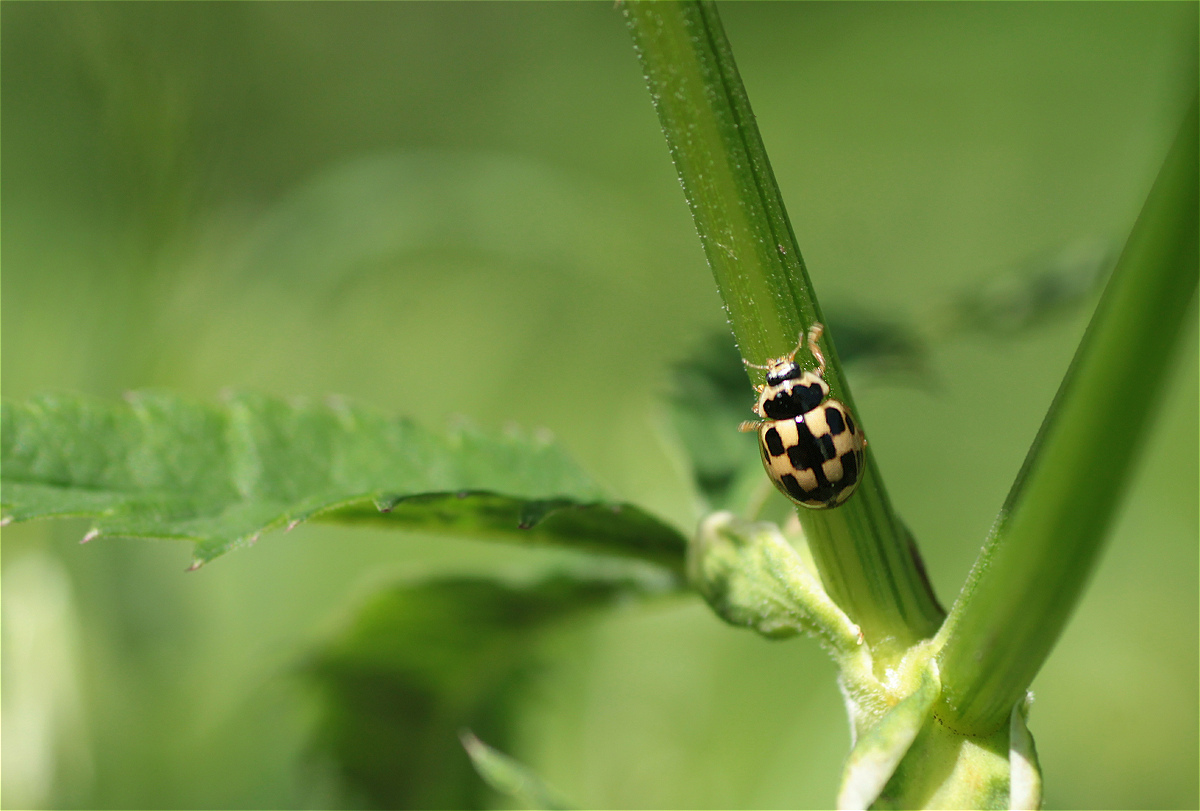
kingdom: Animalia
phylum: Arthropoda
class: Insecta
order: Coleoptera
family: Coccinellidae
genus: Propylaea
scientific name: Propylaea quatuordecimpunctata
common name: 14-spotted ladybird beetle
